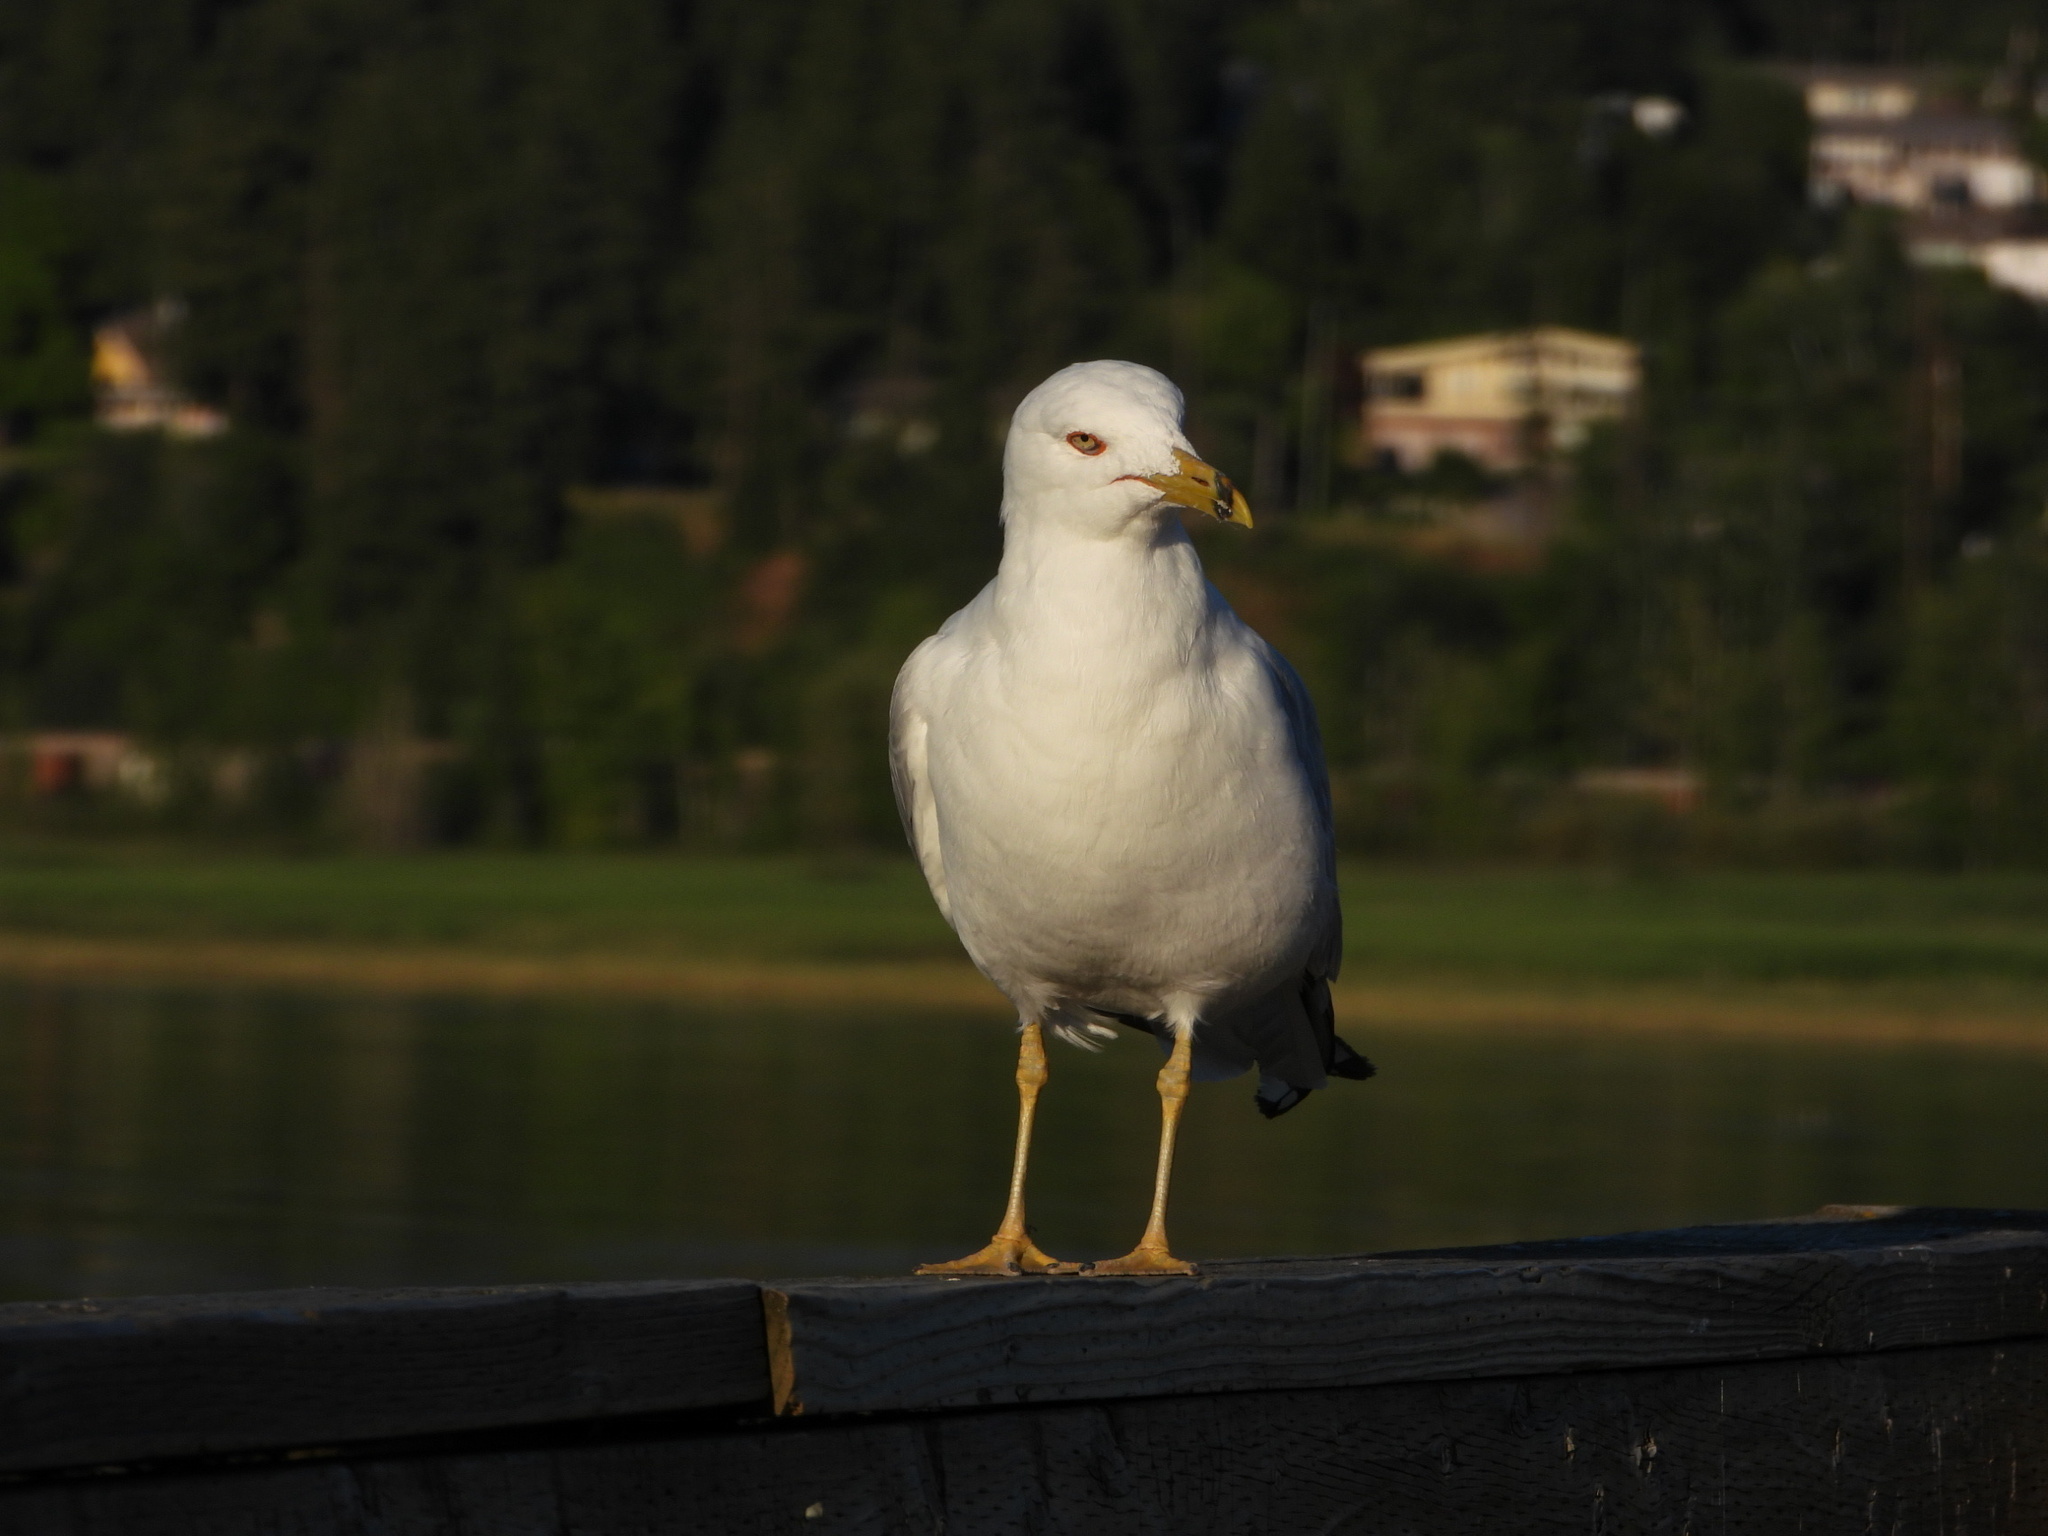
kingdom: Animalia
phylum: Chordata
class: Aves
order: Charadriiformes
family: Laridae
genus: Larus
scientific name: Larus delawarensis
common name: Ring-billed gull
